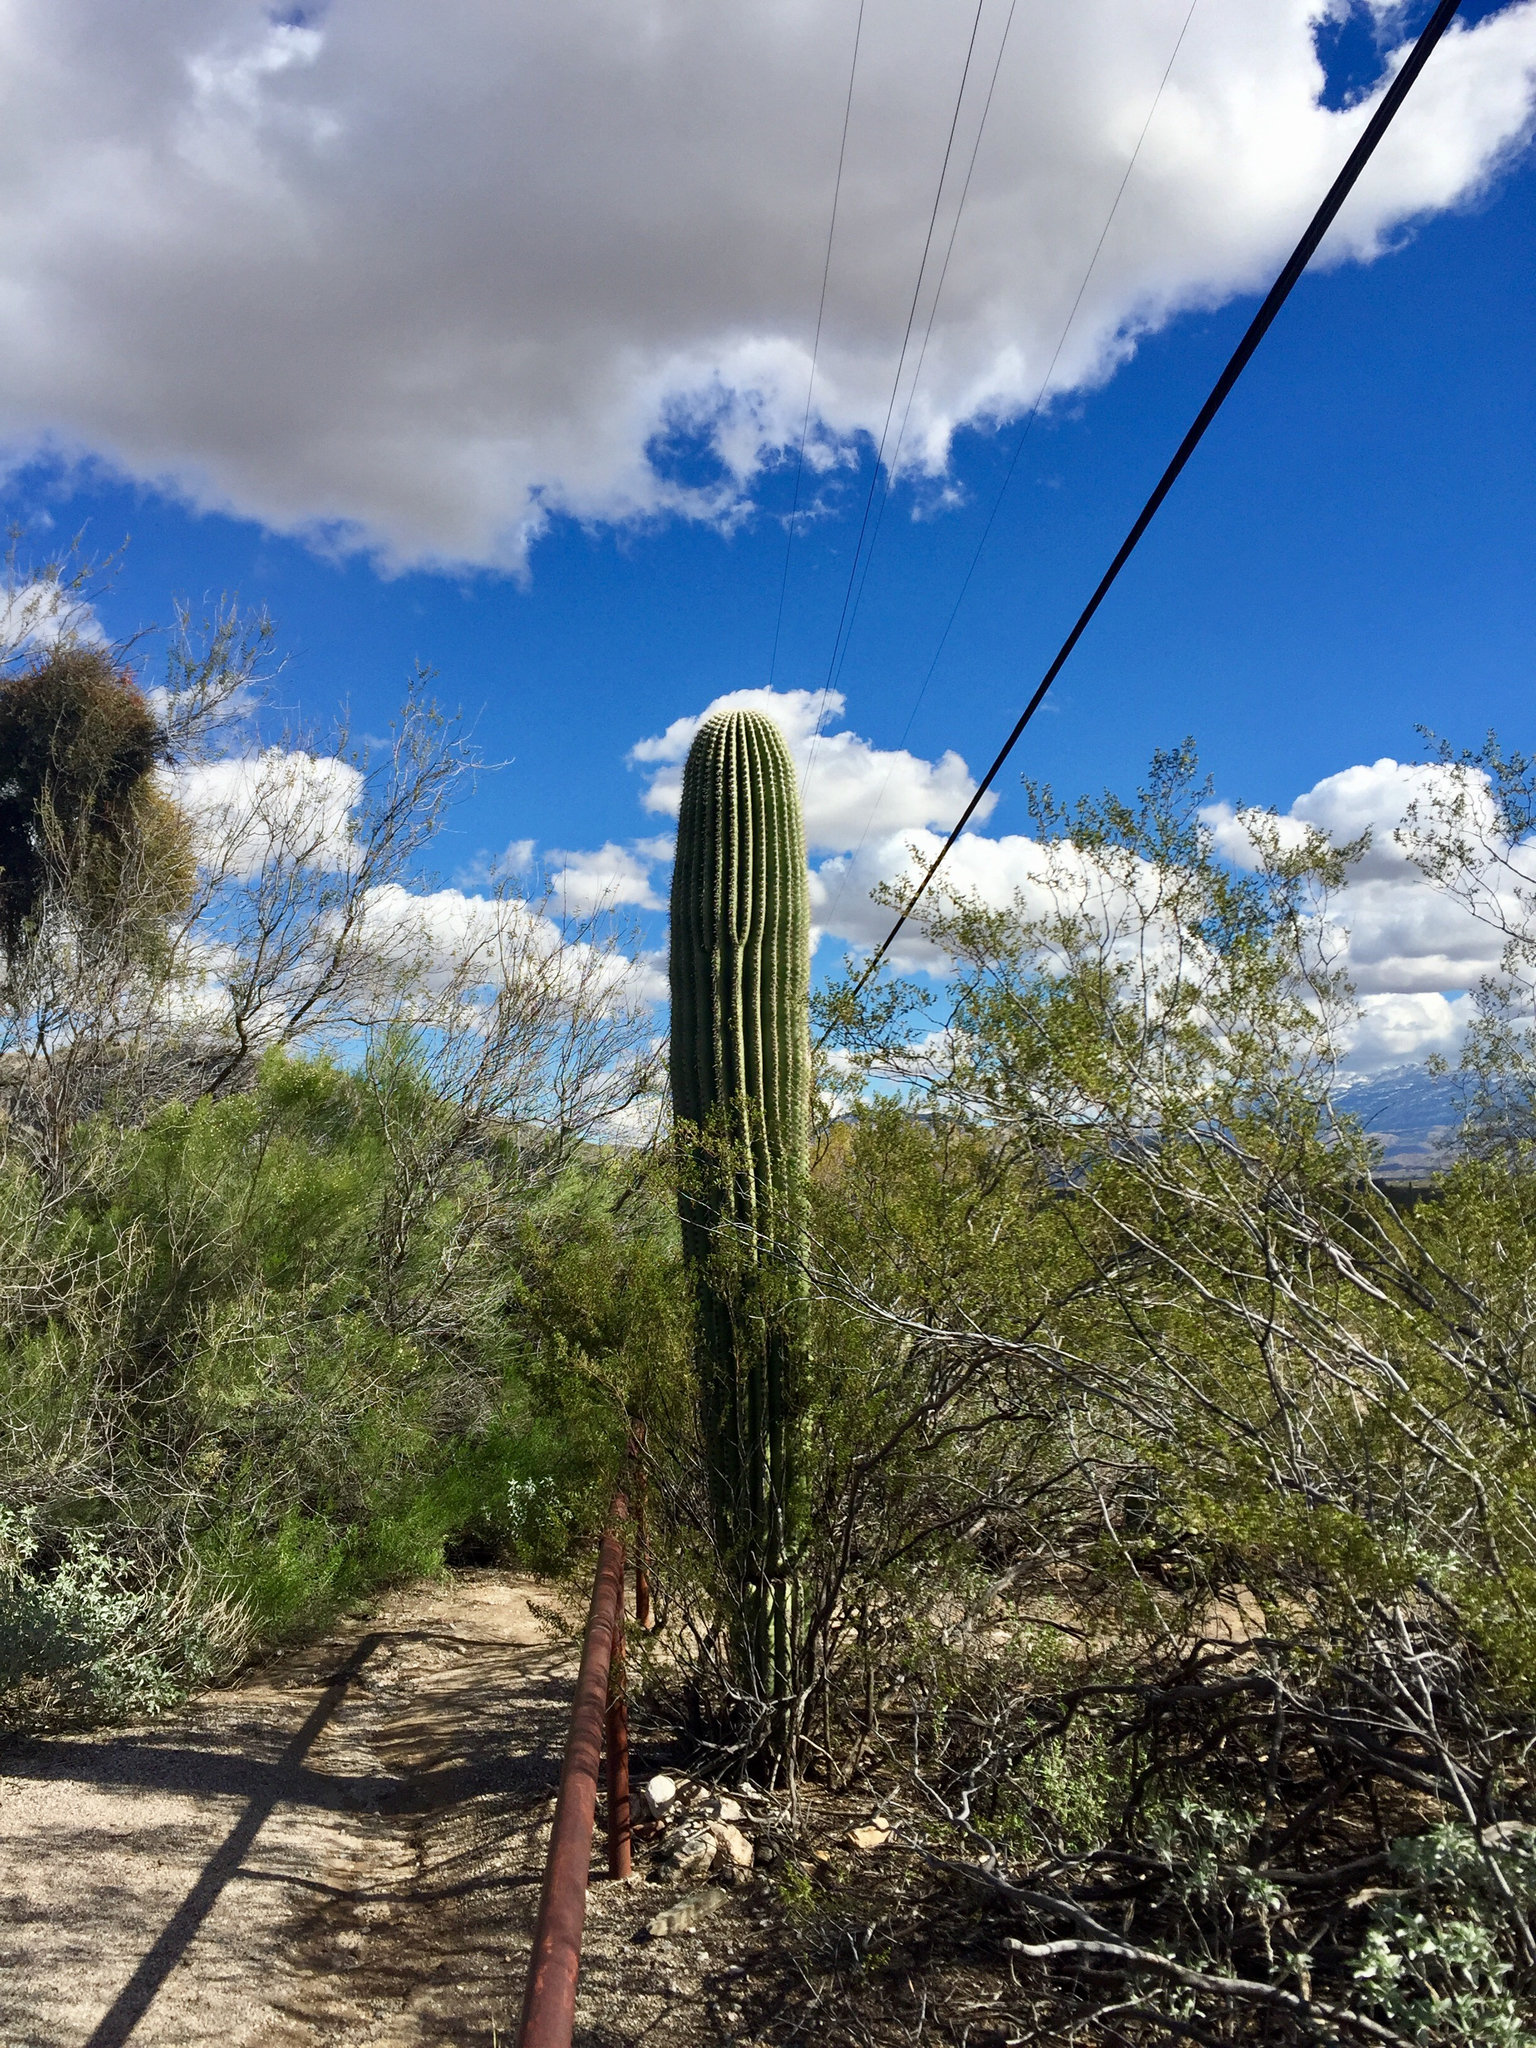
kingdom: Plantae
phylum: Tracheophyta
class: Magnoliopsida
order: Caryophyllales
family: Cactaceae
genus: Carnegiea
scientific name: Carnegiea gigantea
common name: Saguaro
